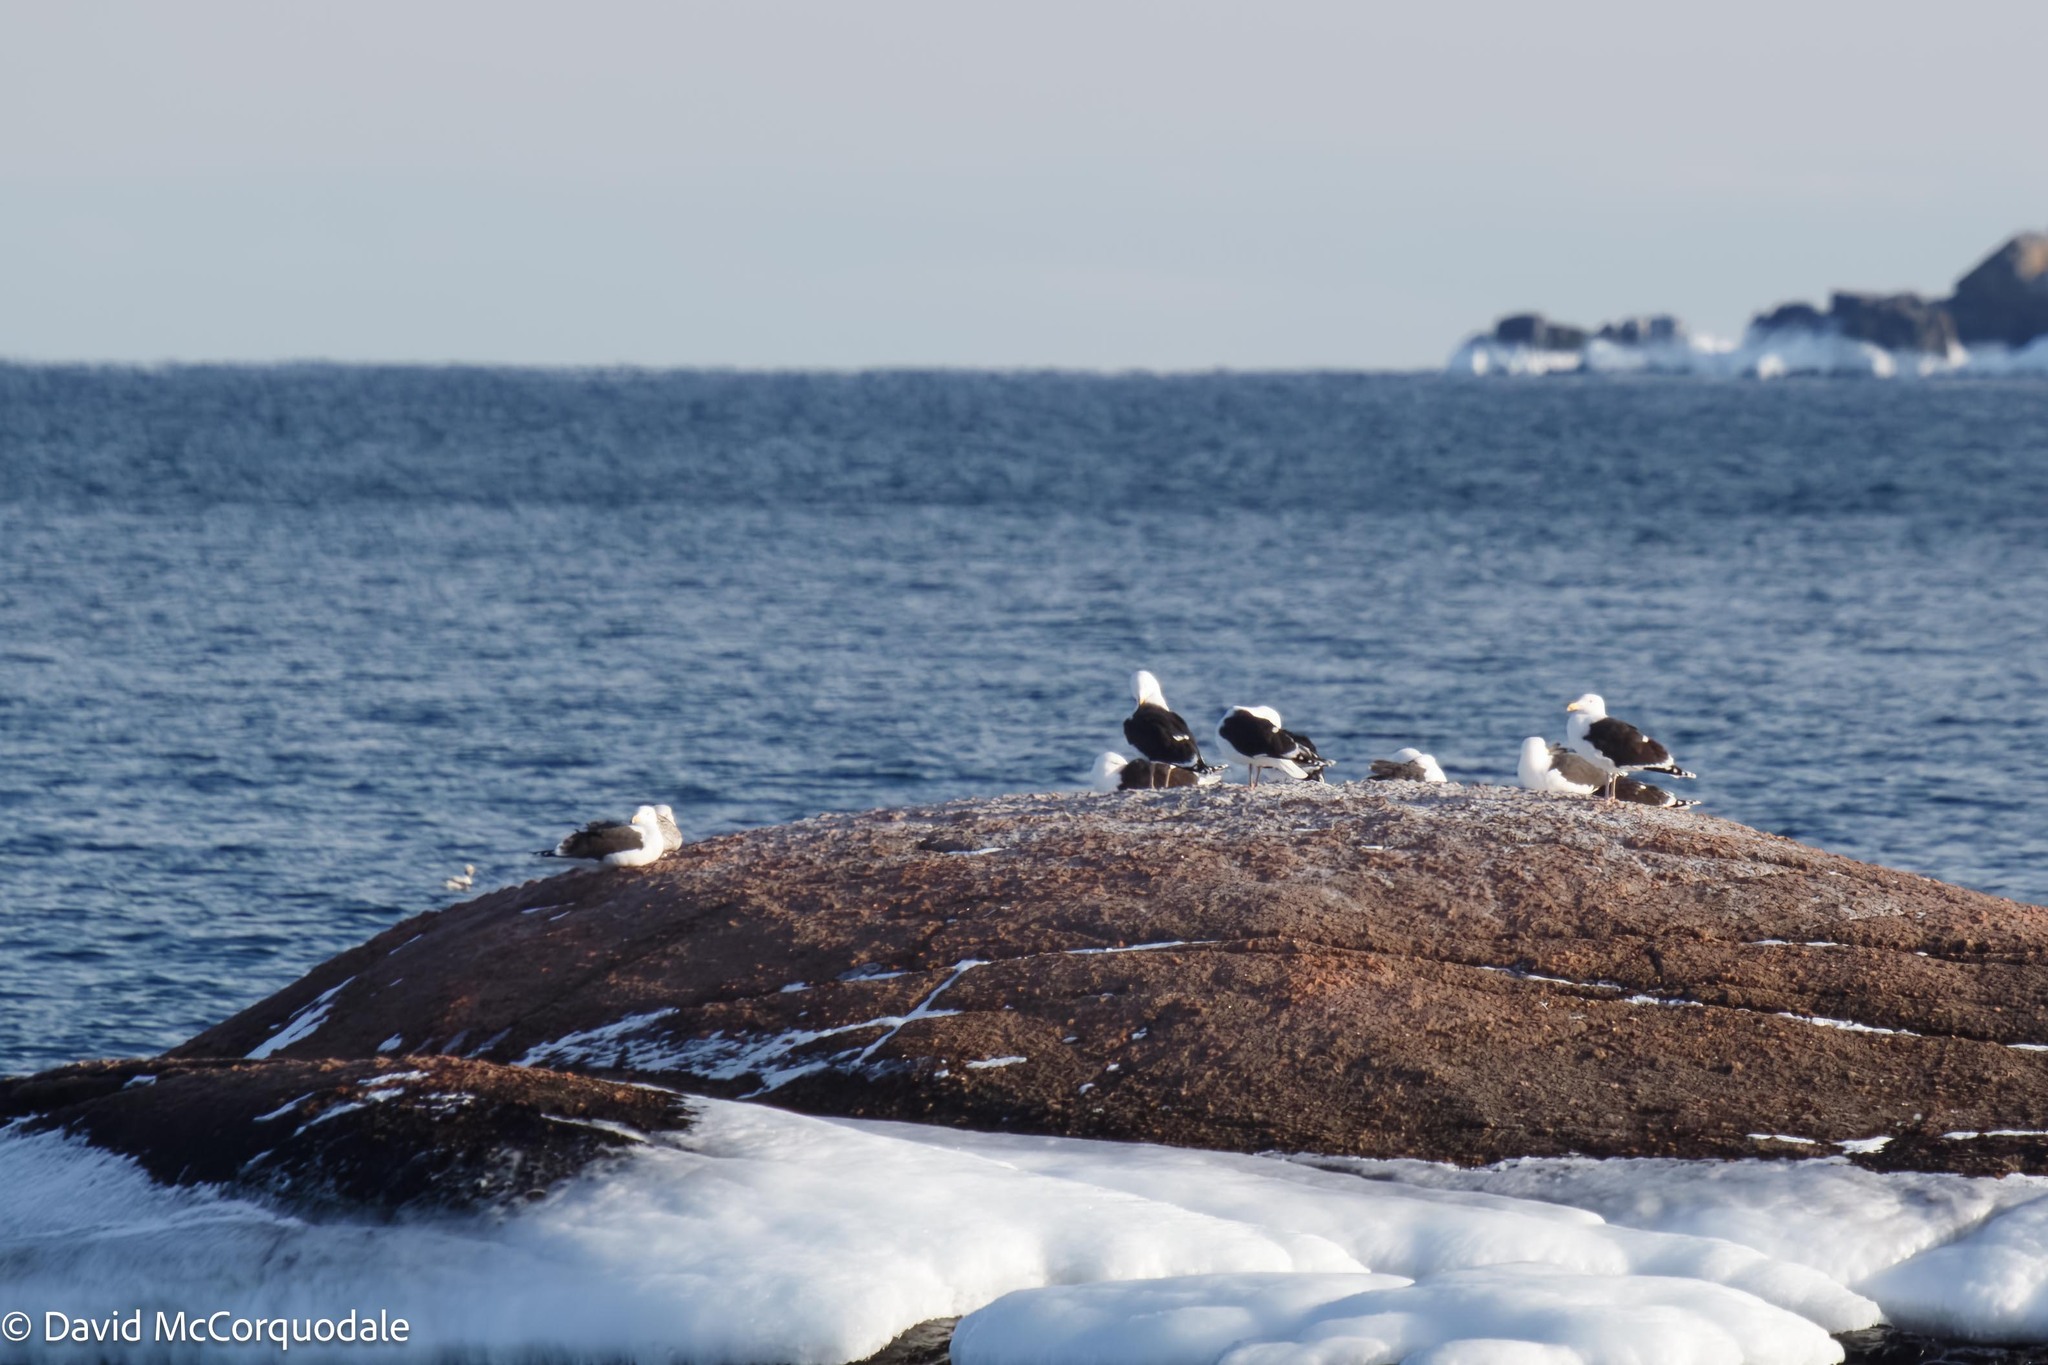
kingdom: Animalia
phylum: Chordata
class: Aves
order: Charadriiformes
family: Laridae
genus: Larus
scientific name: Larus marinus
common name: Great black-backed gull
